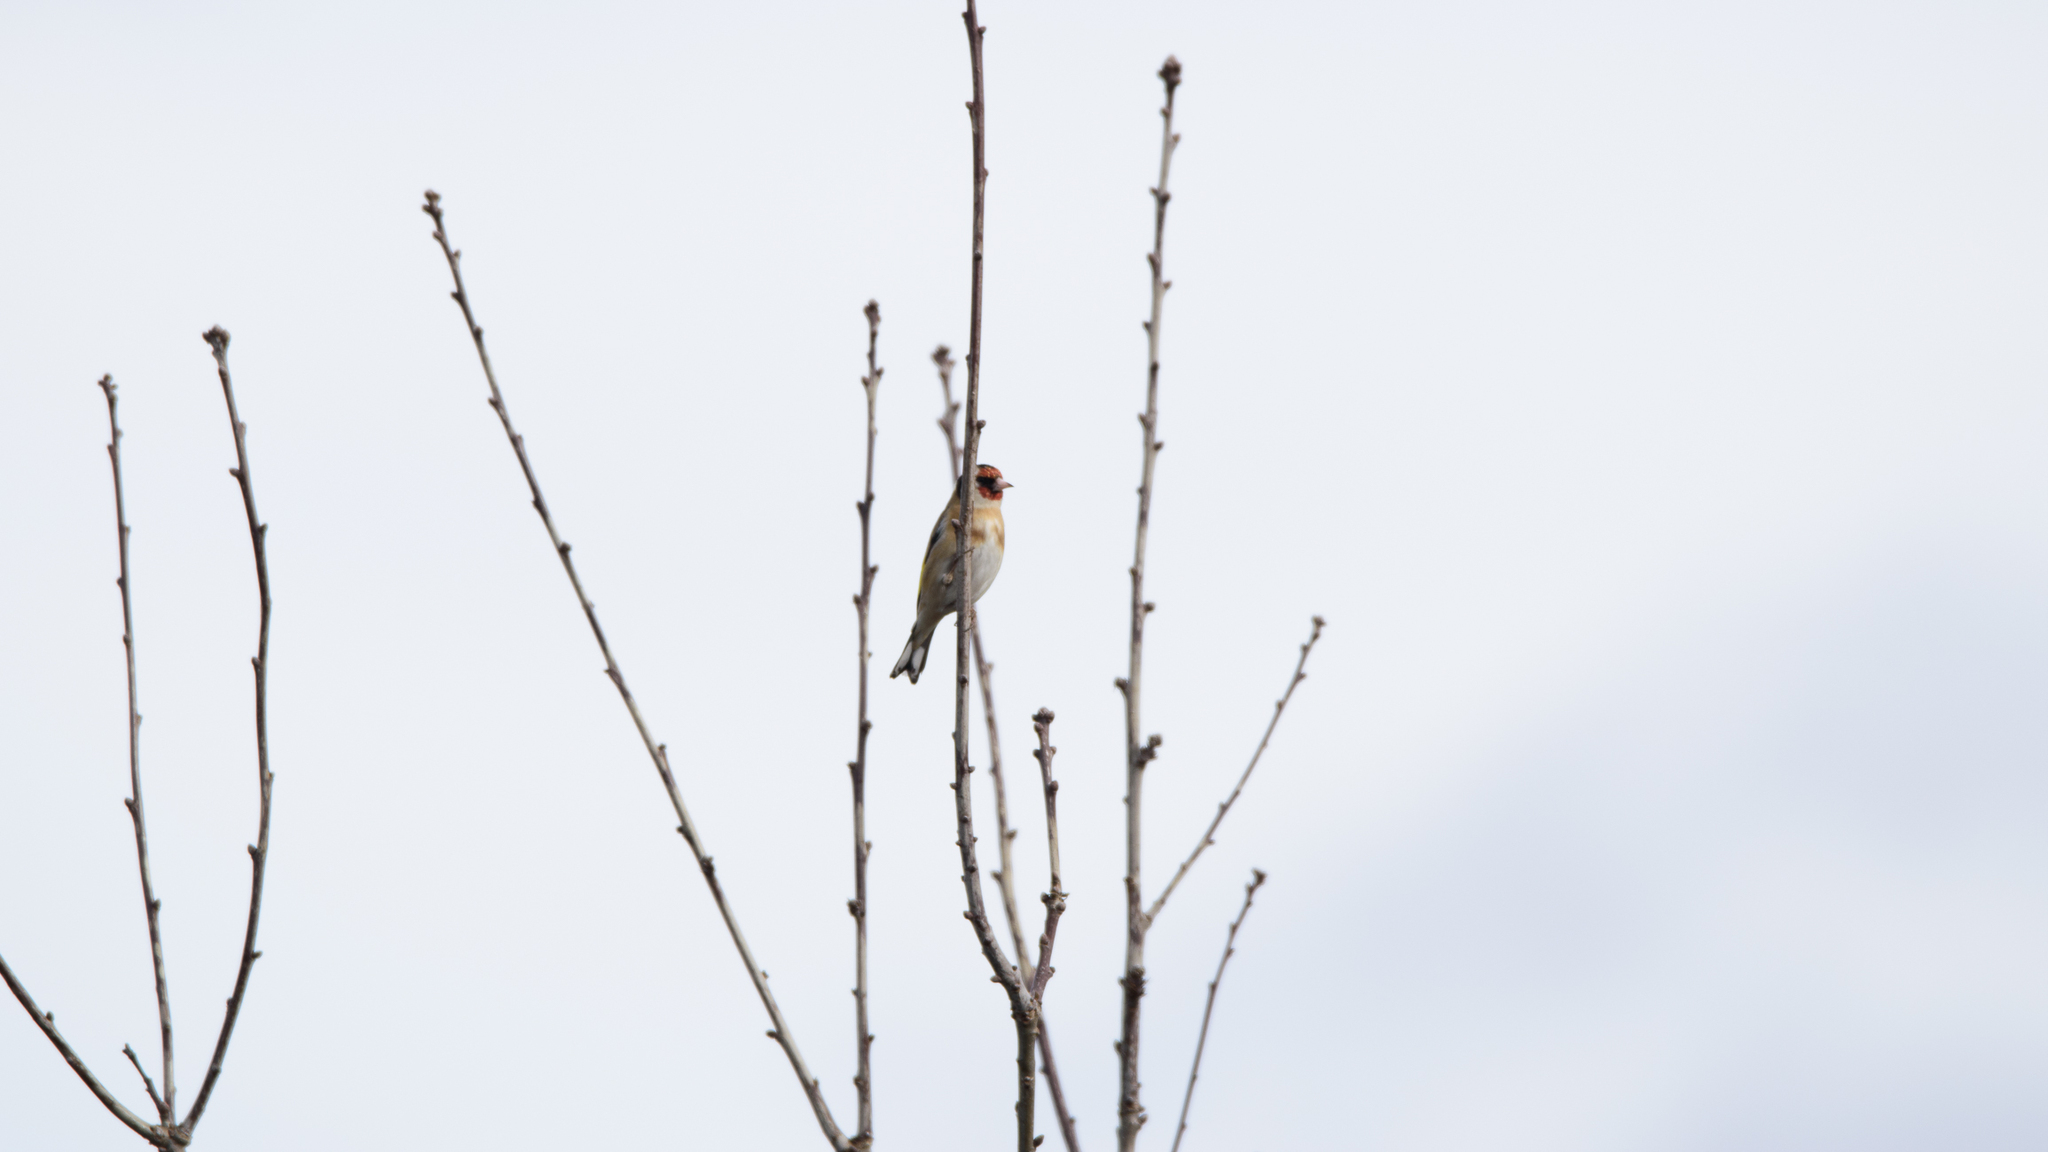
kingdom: Animalia
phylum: Chordata
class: Aves
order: Passeriformes
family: Fringillidae
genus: Carduelis
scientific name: Carduelis carduelis
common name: European goldfinch
